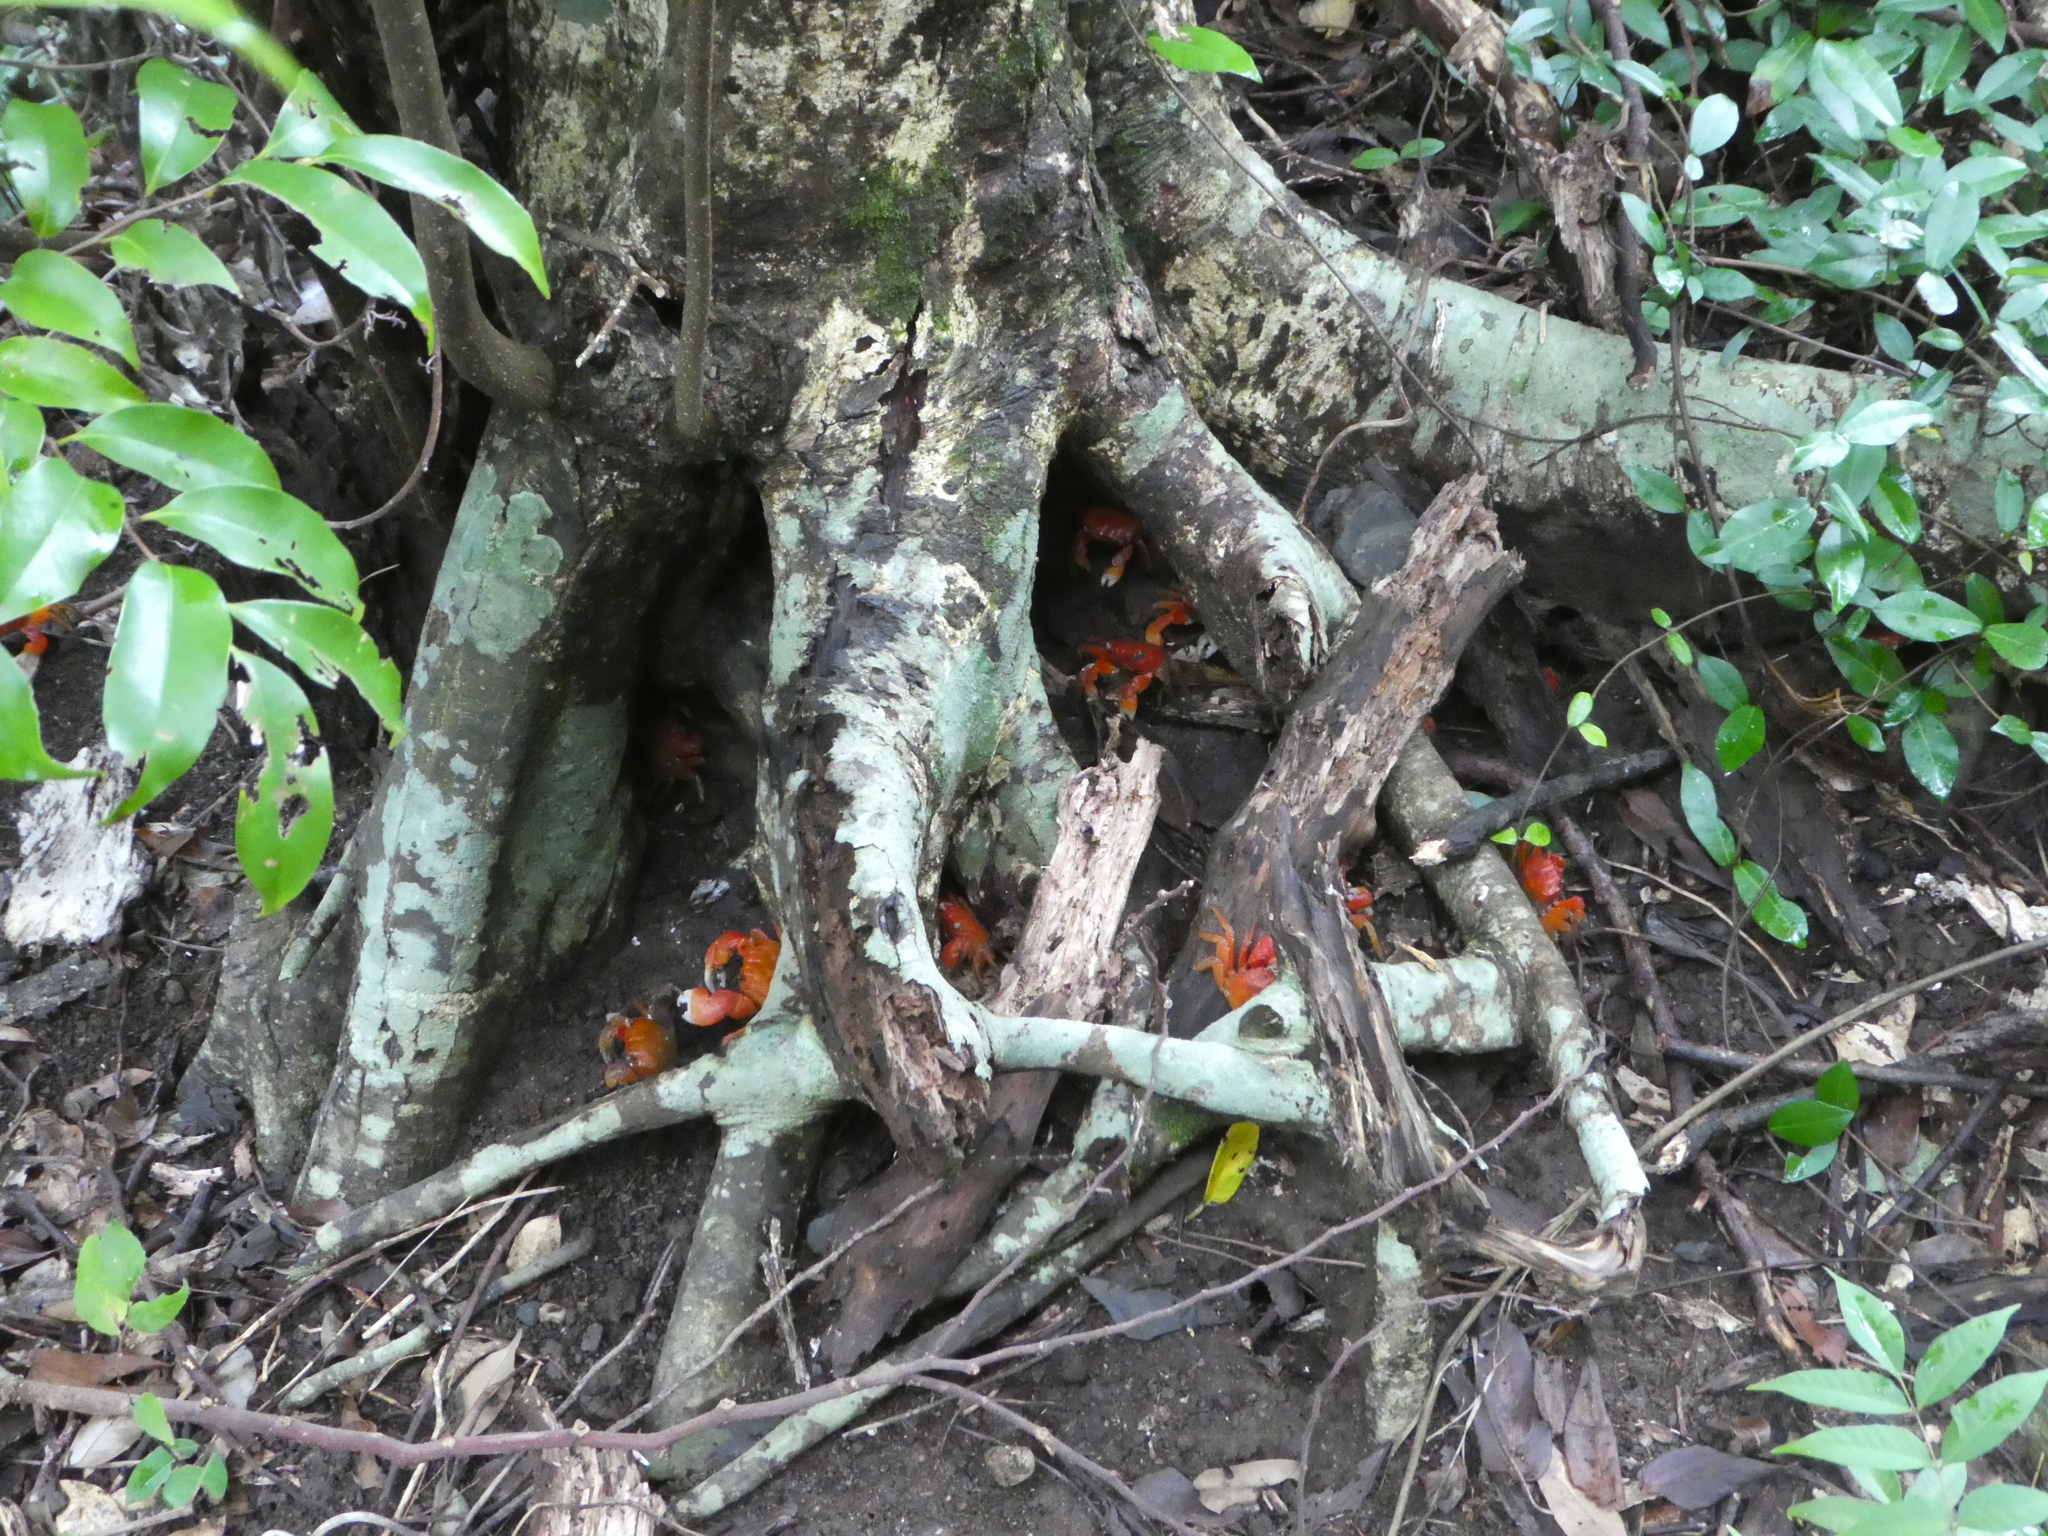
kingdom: Animalia
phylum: Arthropoda
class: Malacostraca
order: Decapoda
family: Sesarmidae
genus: Orisarma
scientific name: Orisarma intermedium
